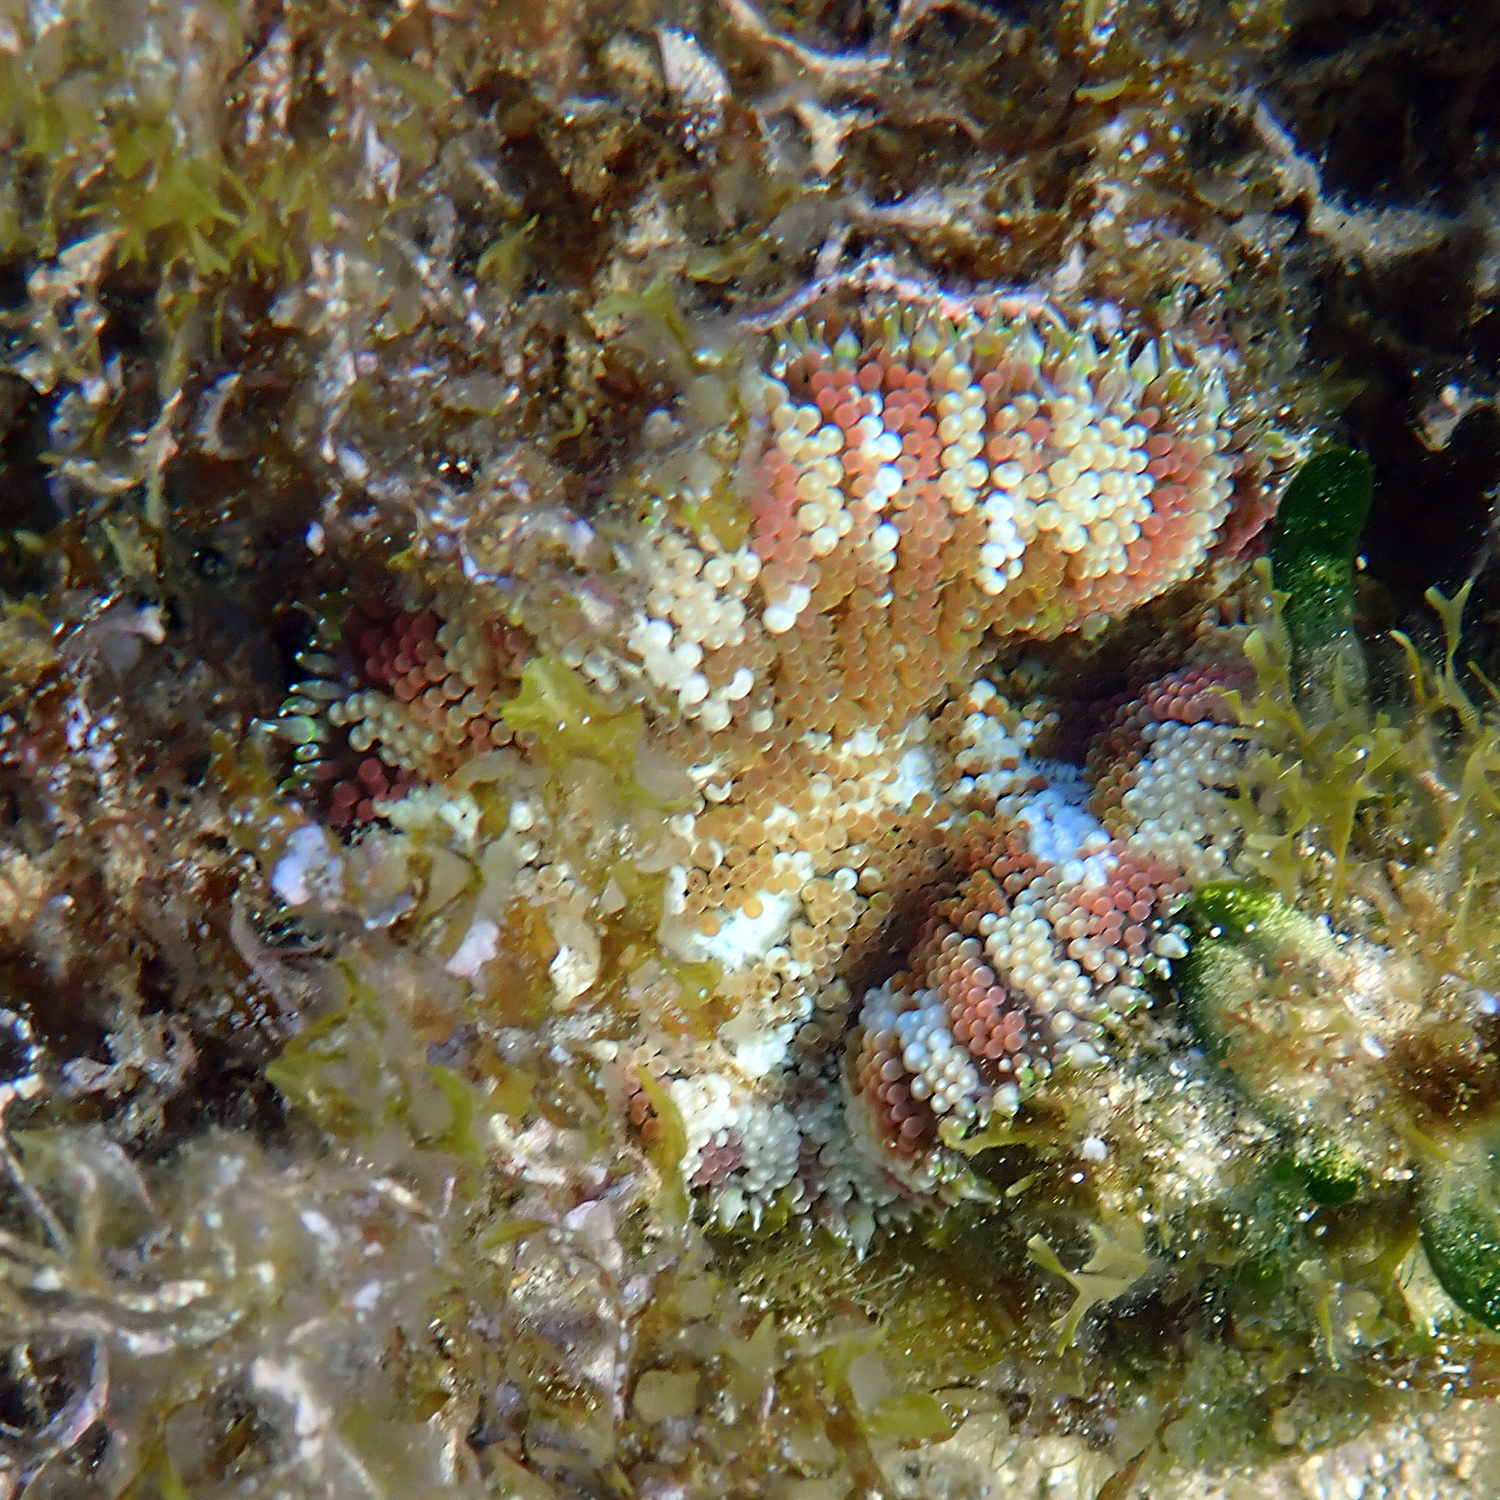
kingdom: Animalia
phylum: Cnidaria
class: Anthozoa
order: Actiniaria
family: Stichodactylidae
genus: Stichodactyla
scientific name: Stichodactyla tapetum
